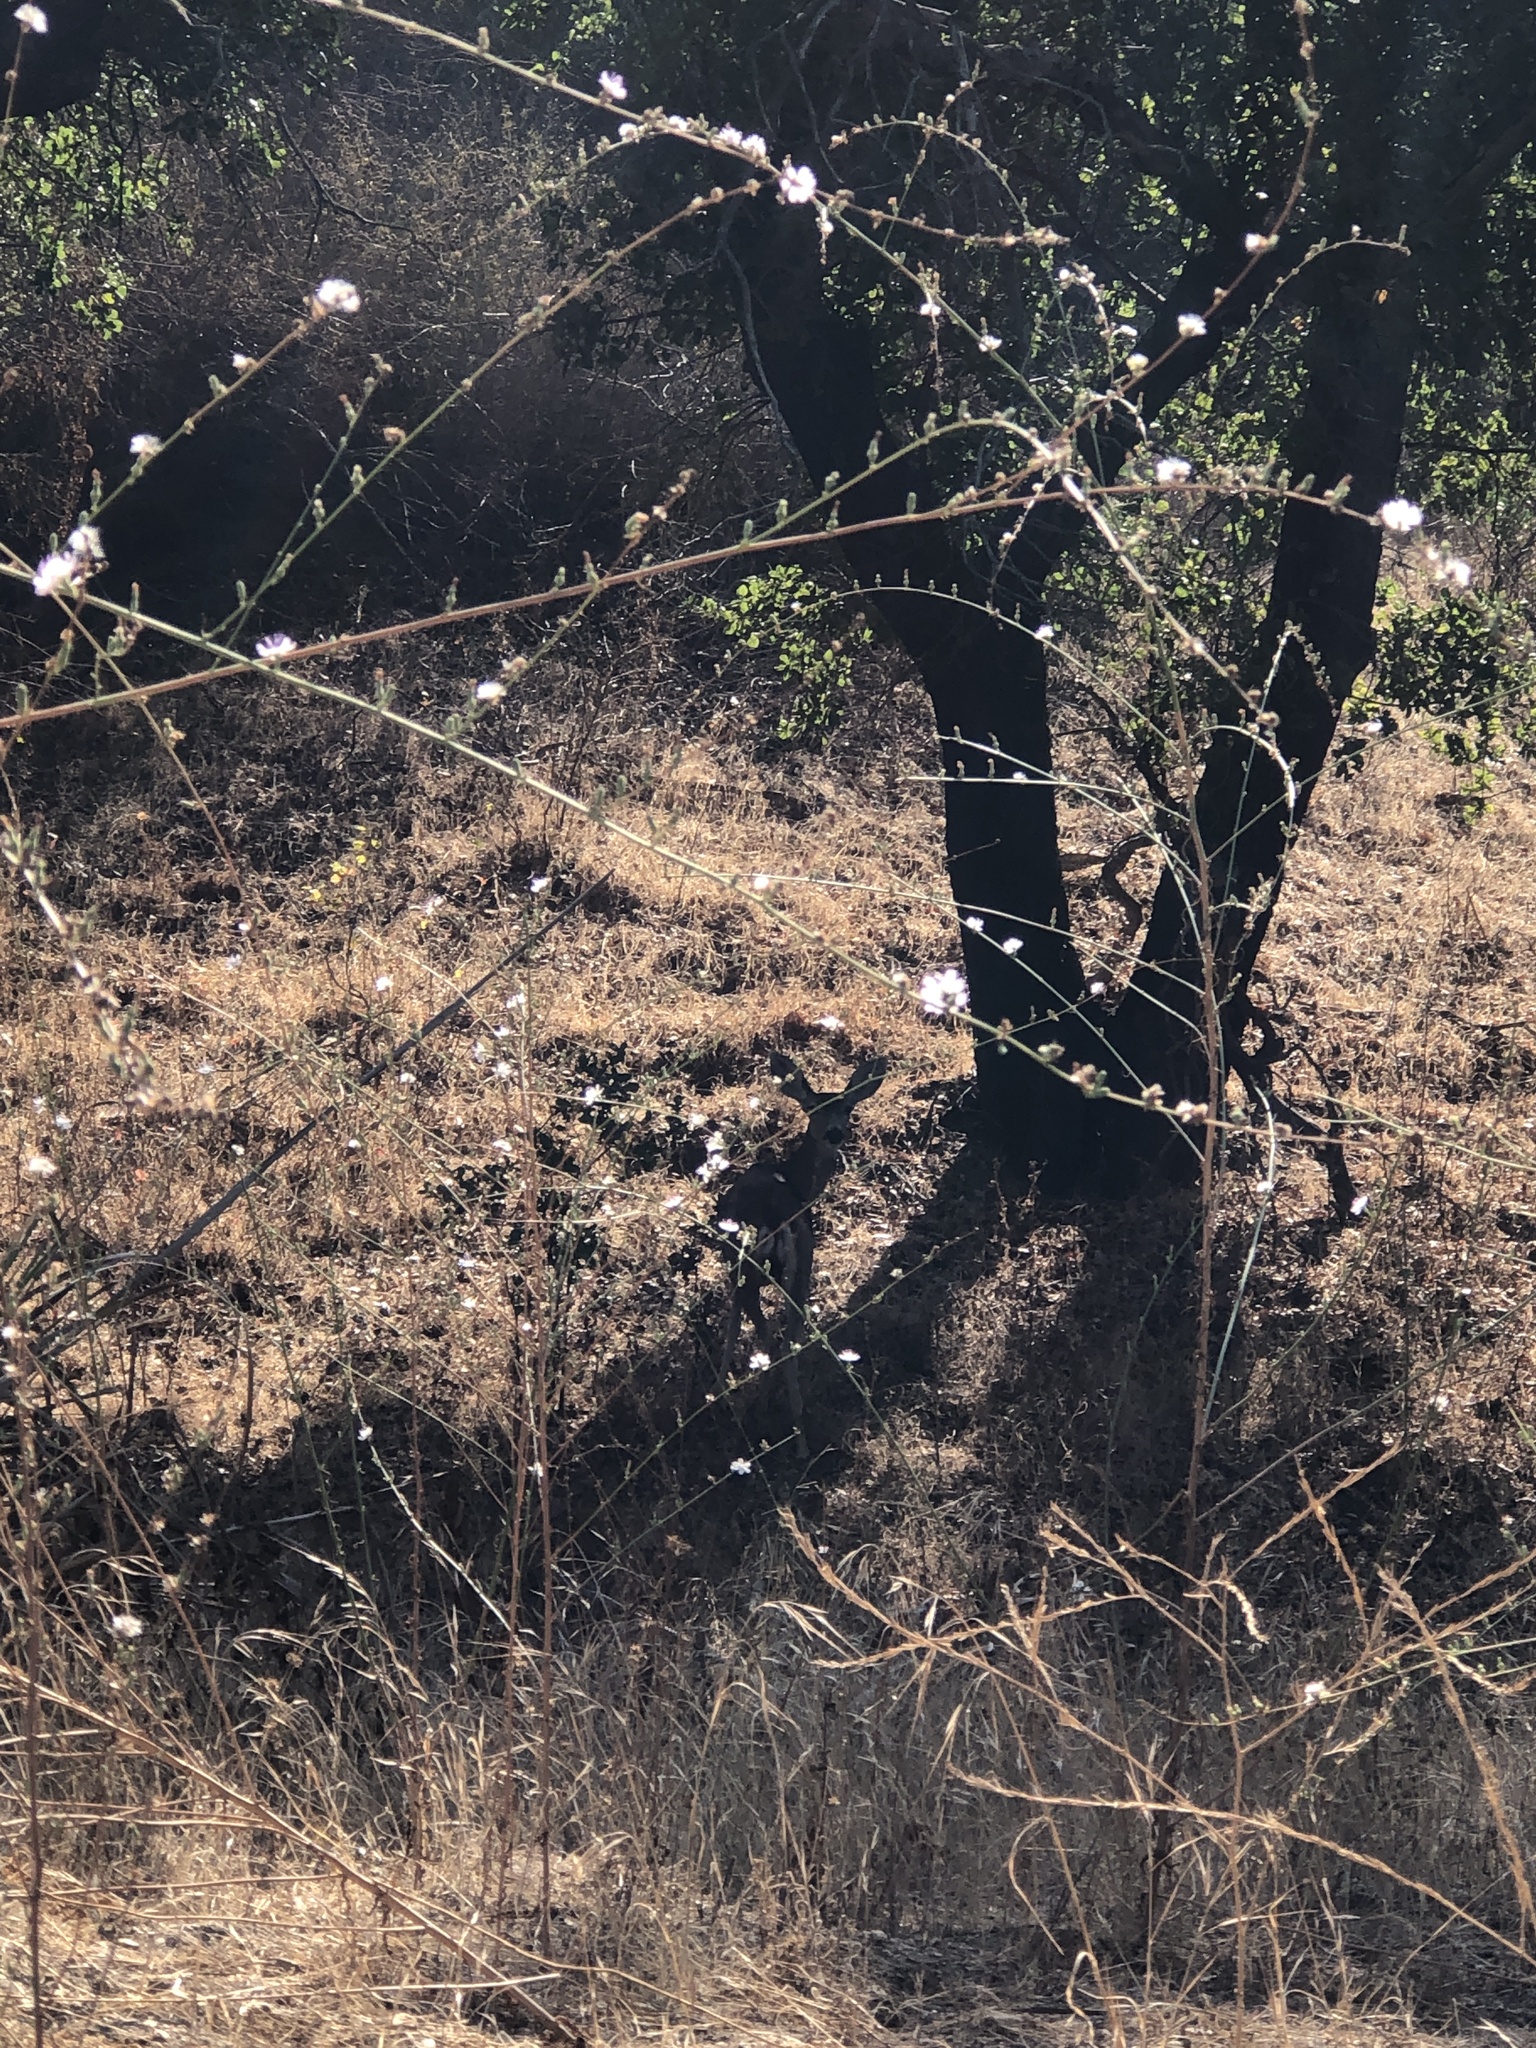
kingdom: Animalia
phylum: Chordata
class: Mammalia
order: Artiodactyla
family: Cervidae
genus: Odocoileus
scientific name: Odocoileus hemionus
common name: Mule deer
